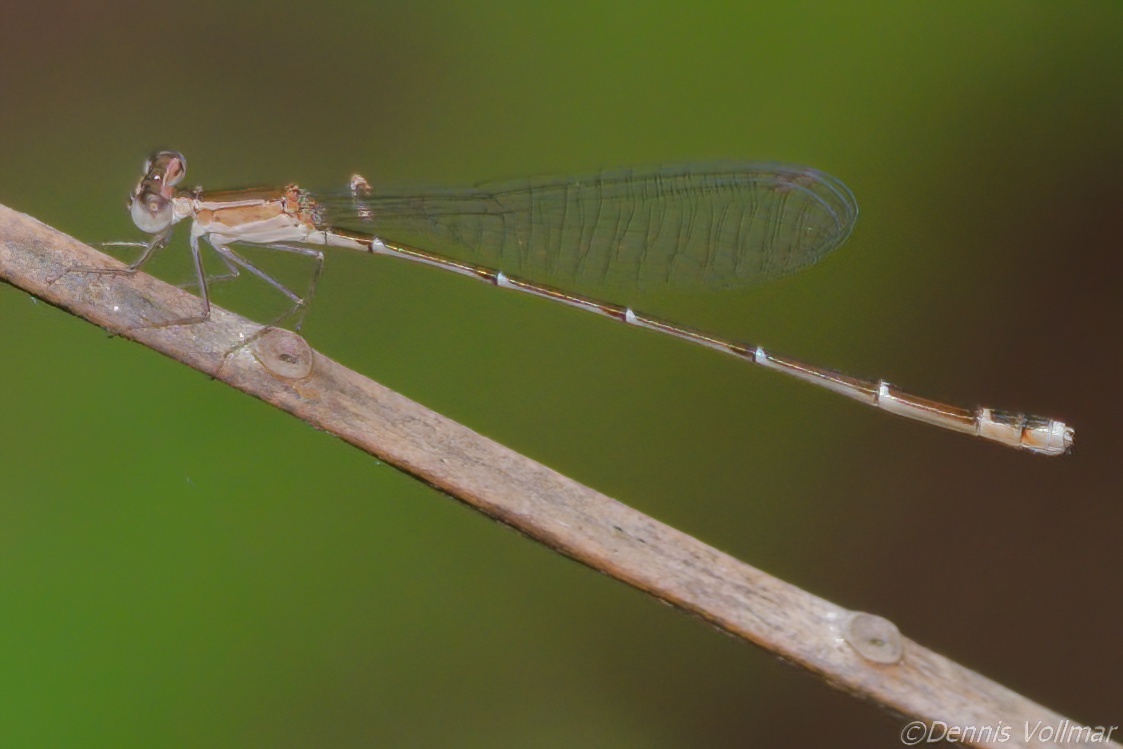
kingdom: Animalia
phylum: Arthropoda
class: Insecta
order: Odonata
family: Coenagrionidae
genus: Nehalennia
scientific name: Nehalennia pallidula
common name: Everglades sprite
